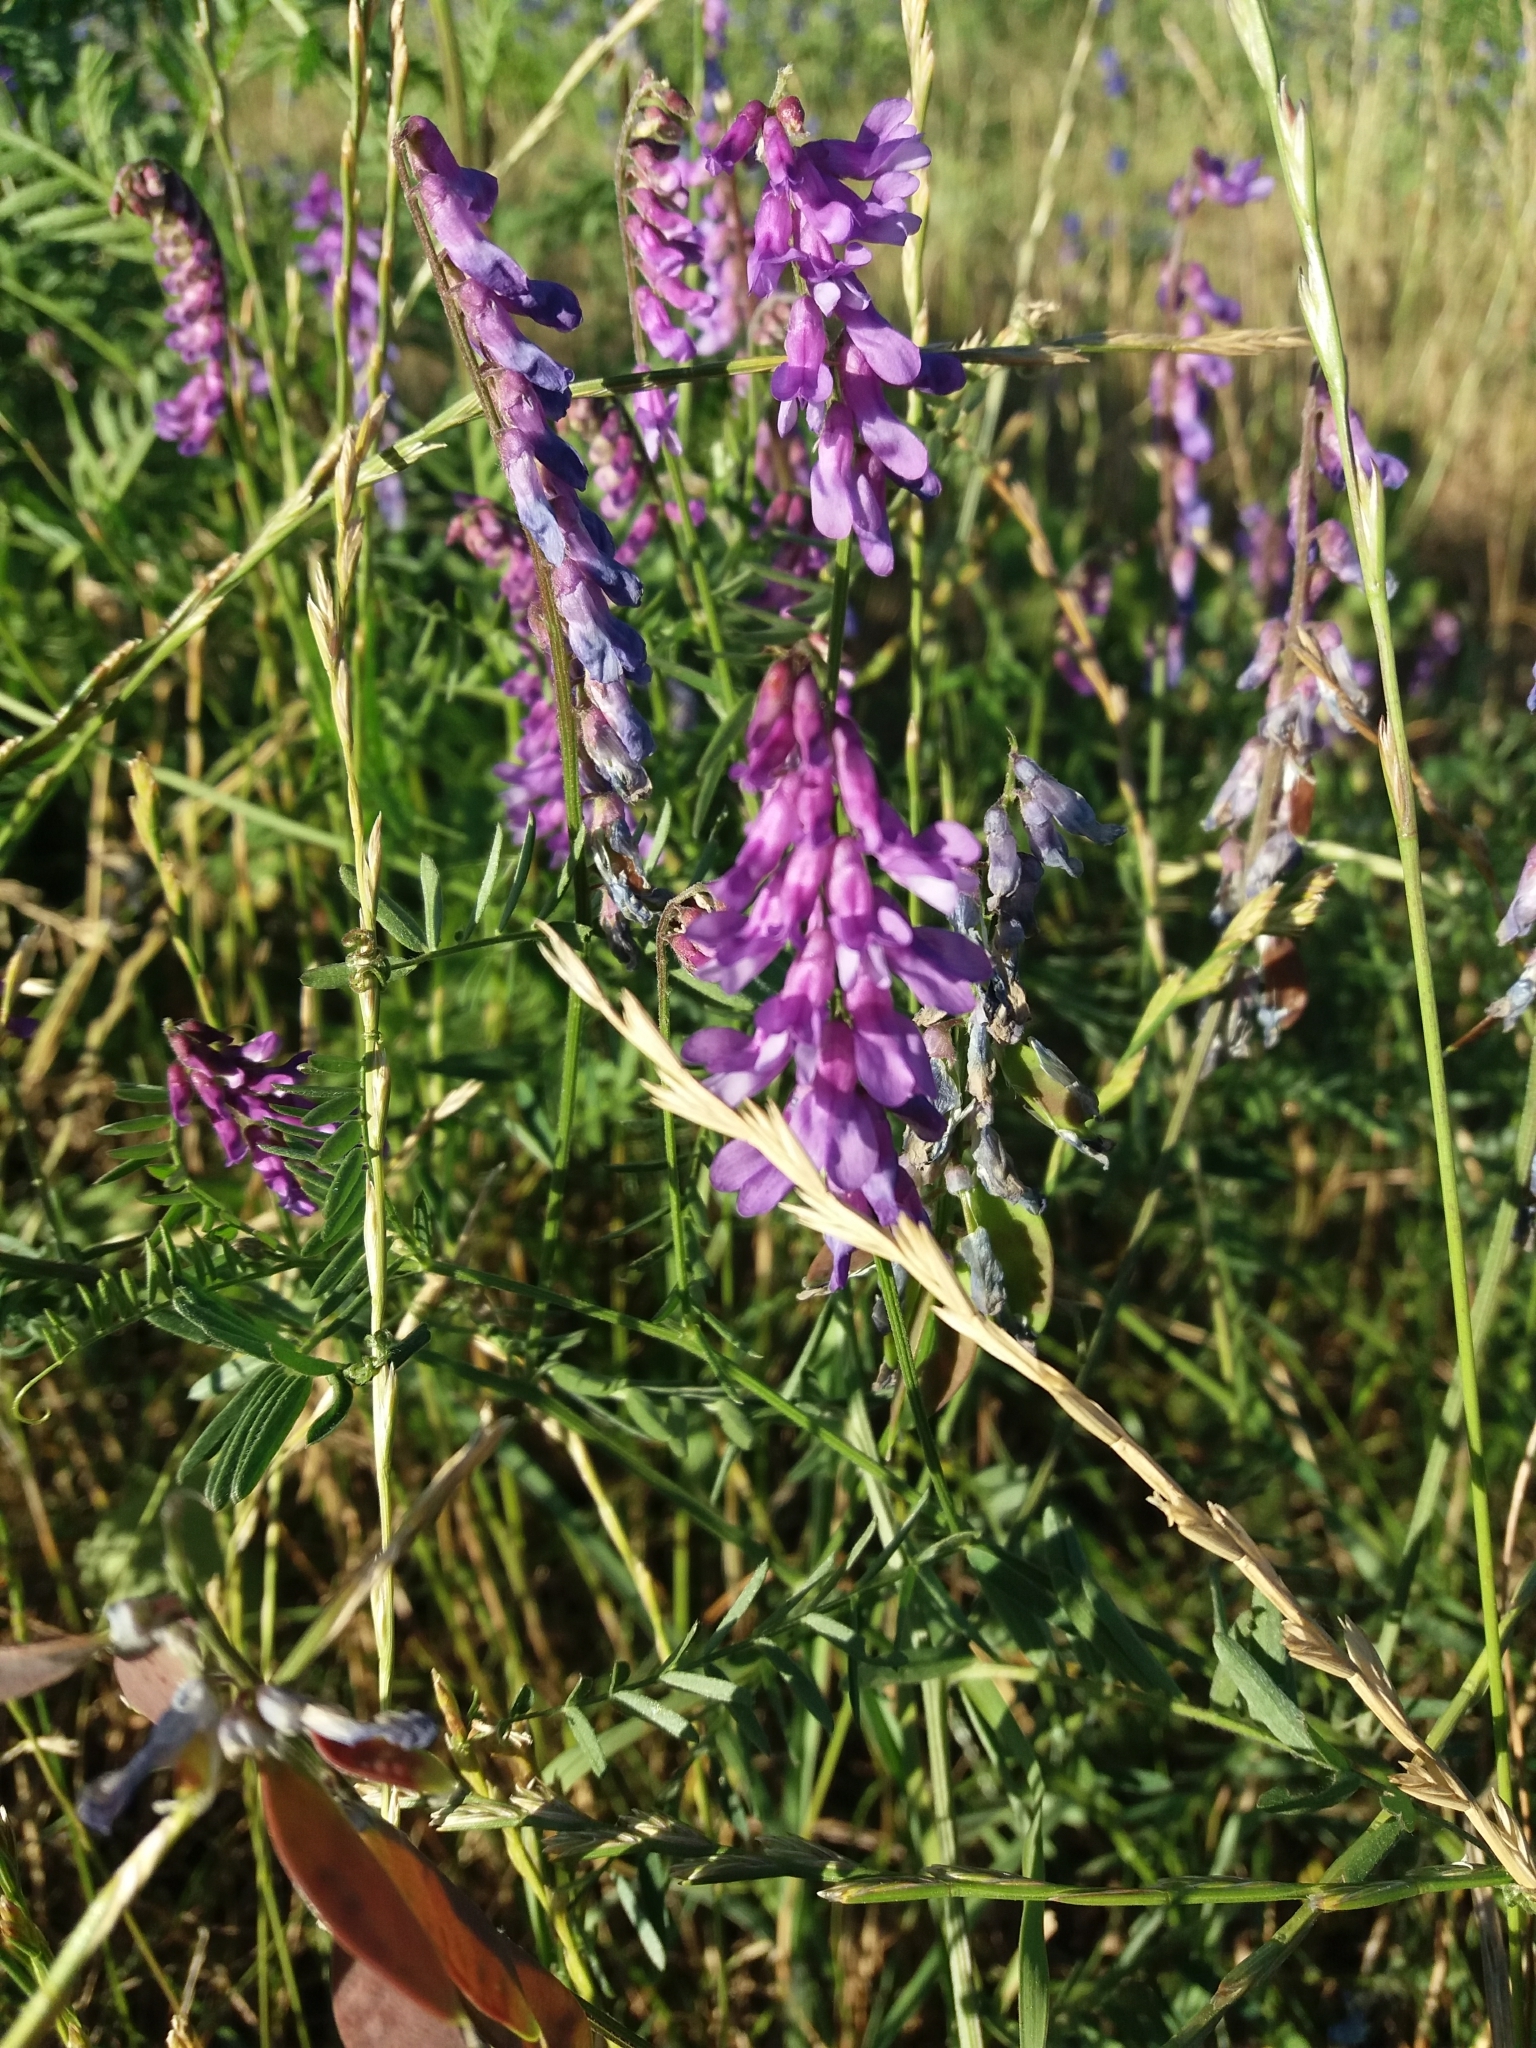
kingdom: Plantae
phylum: Tracheophyta
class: Magnoliopsida
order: Fabales
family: Fabaceae
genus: Vicia
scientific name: Vicia cracca
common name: Bird vetch
